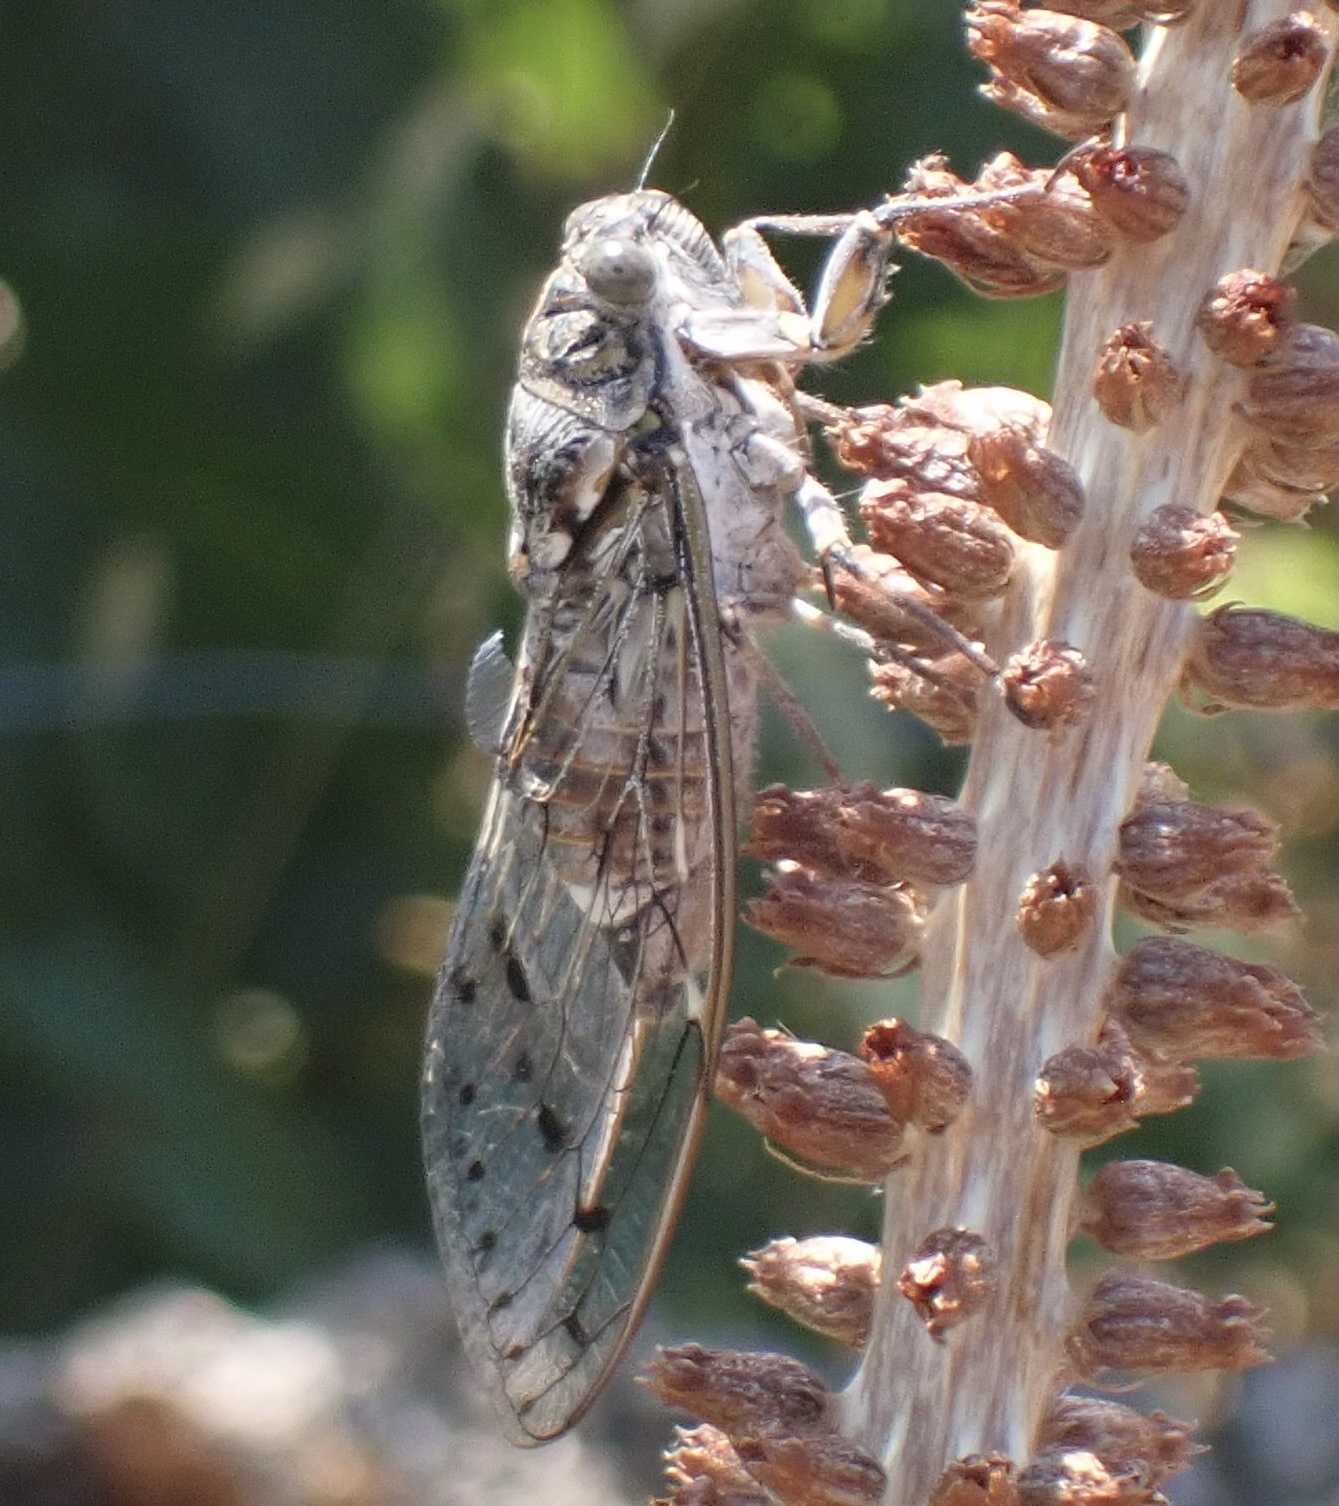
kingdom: Animalia
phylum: Arthropoda
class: Insecta
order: Hemiptera
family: Cicadidae
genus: Cicada
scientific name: Cicada orni
